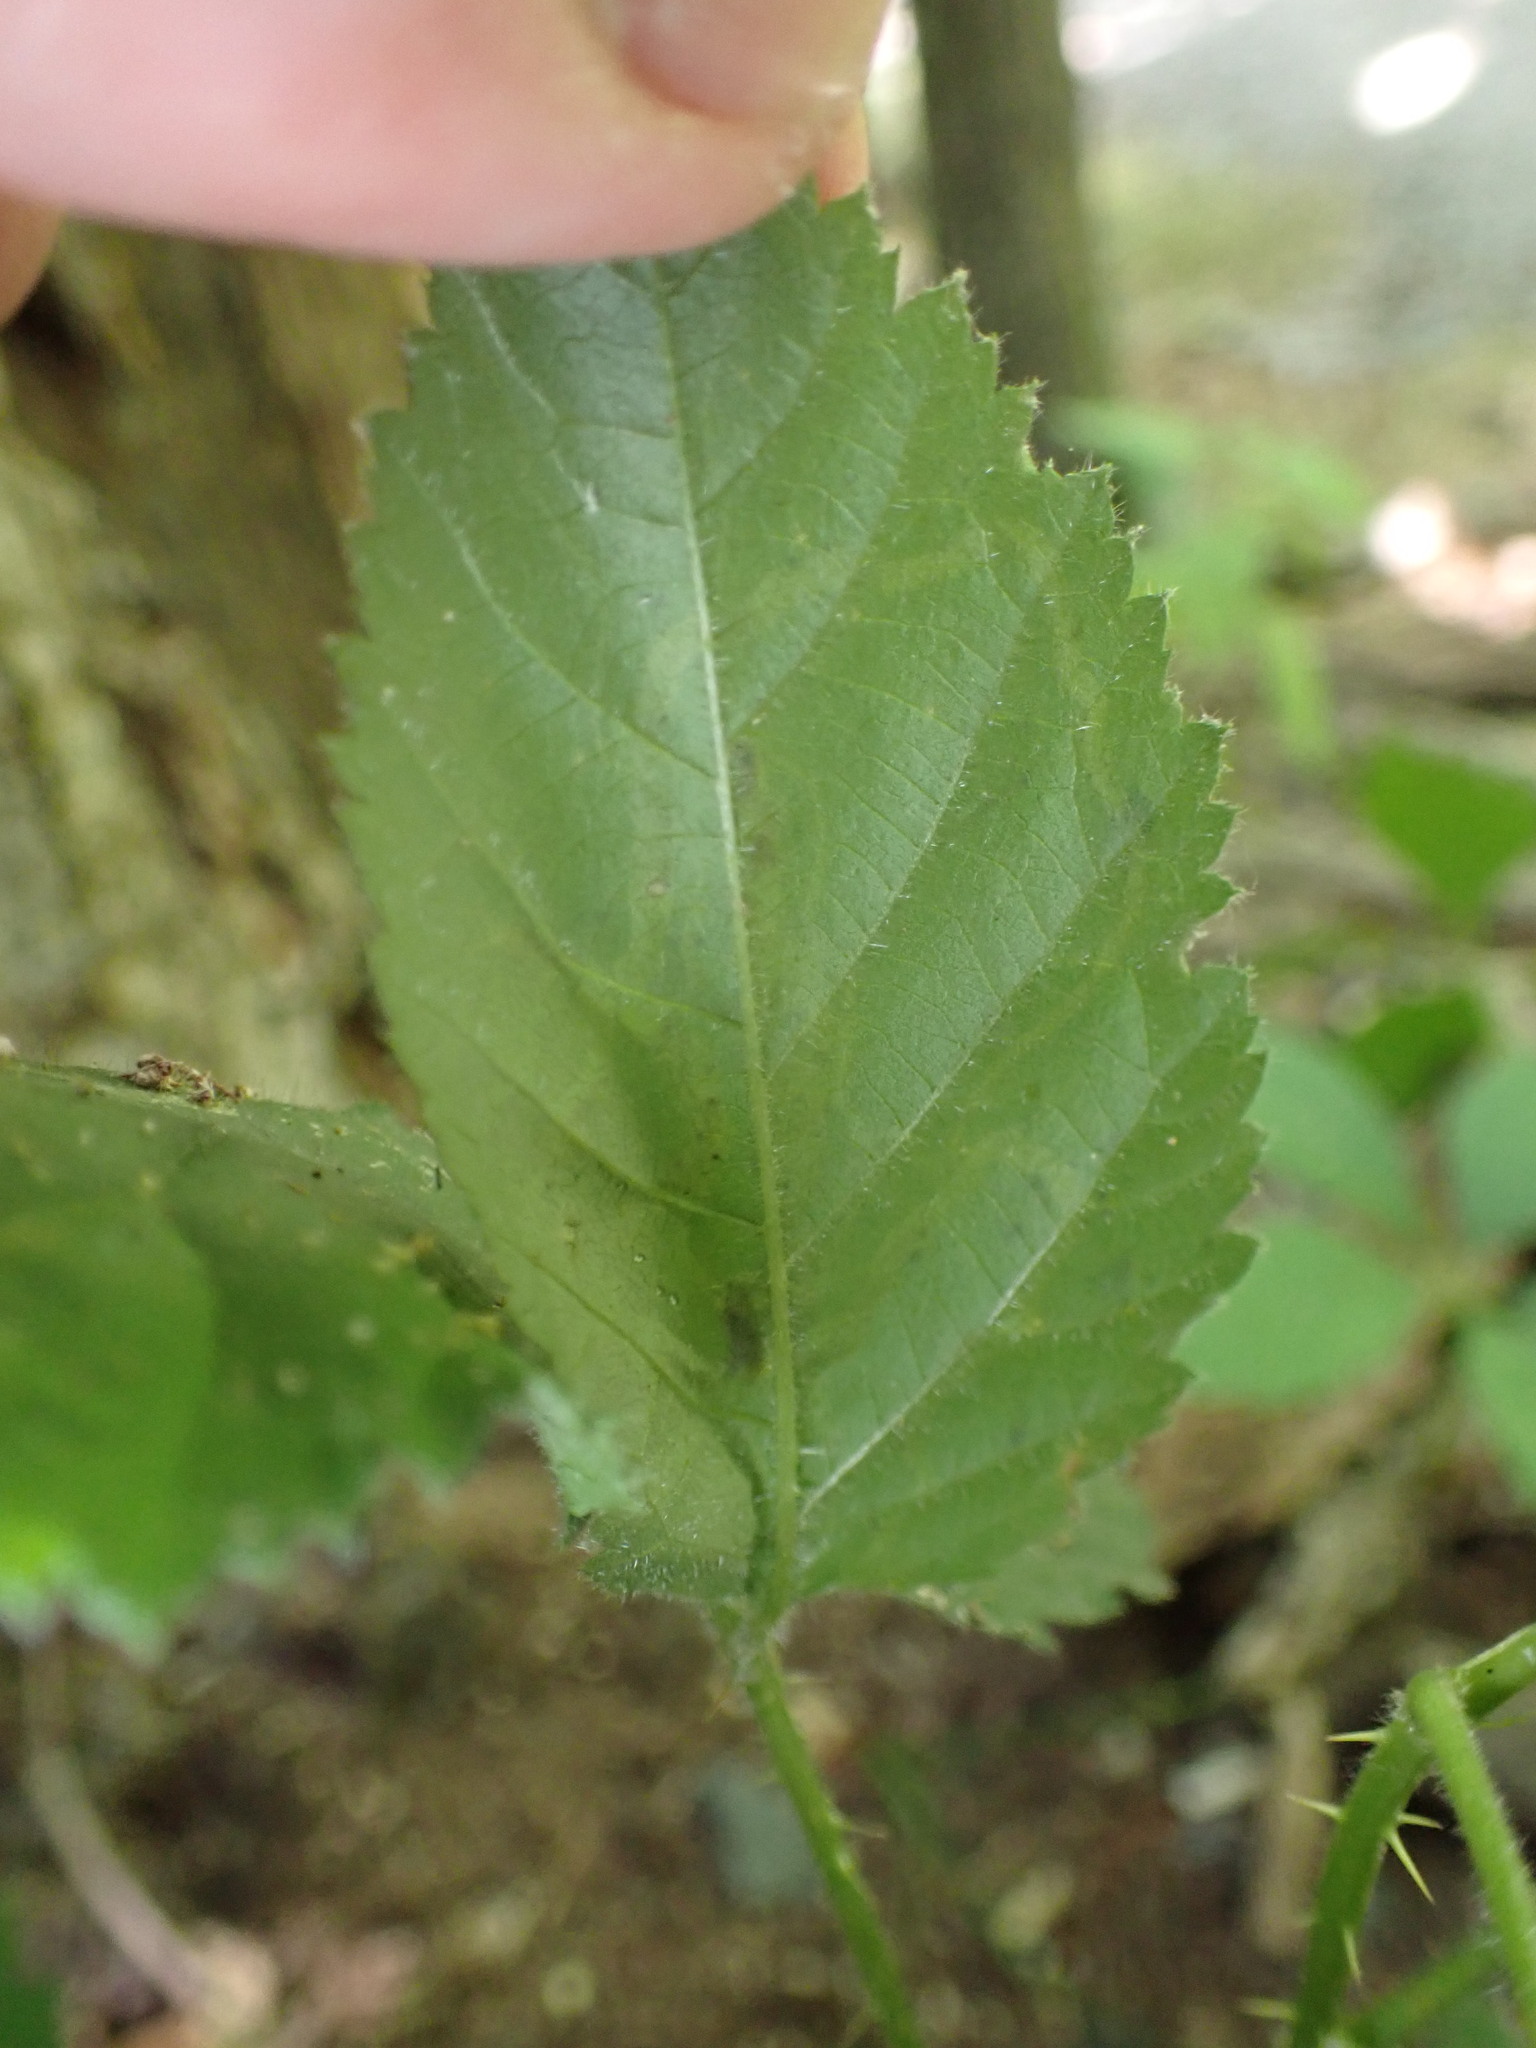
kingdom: Animalia
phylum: Arthropoda
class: Insecta
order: Diptera
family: Agromyzidae
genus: Agromyza
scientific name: Agromyza vockerothi
